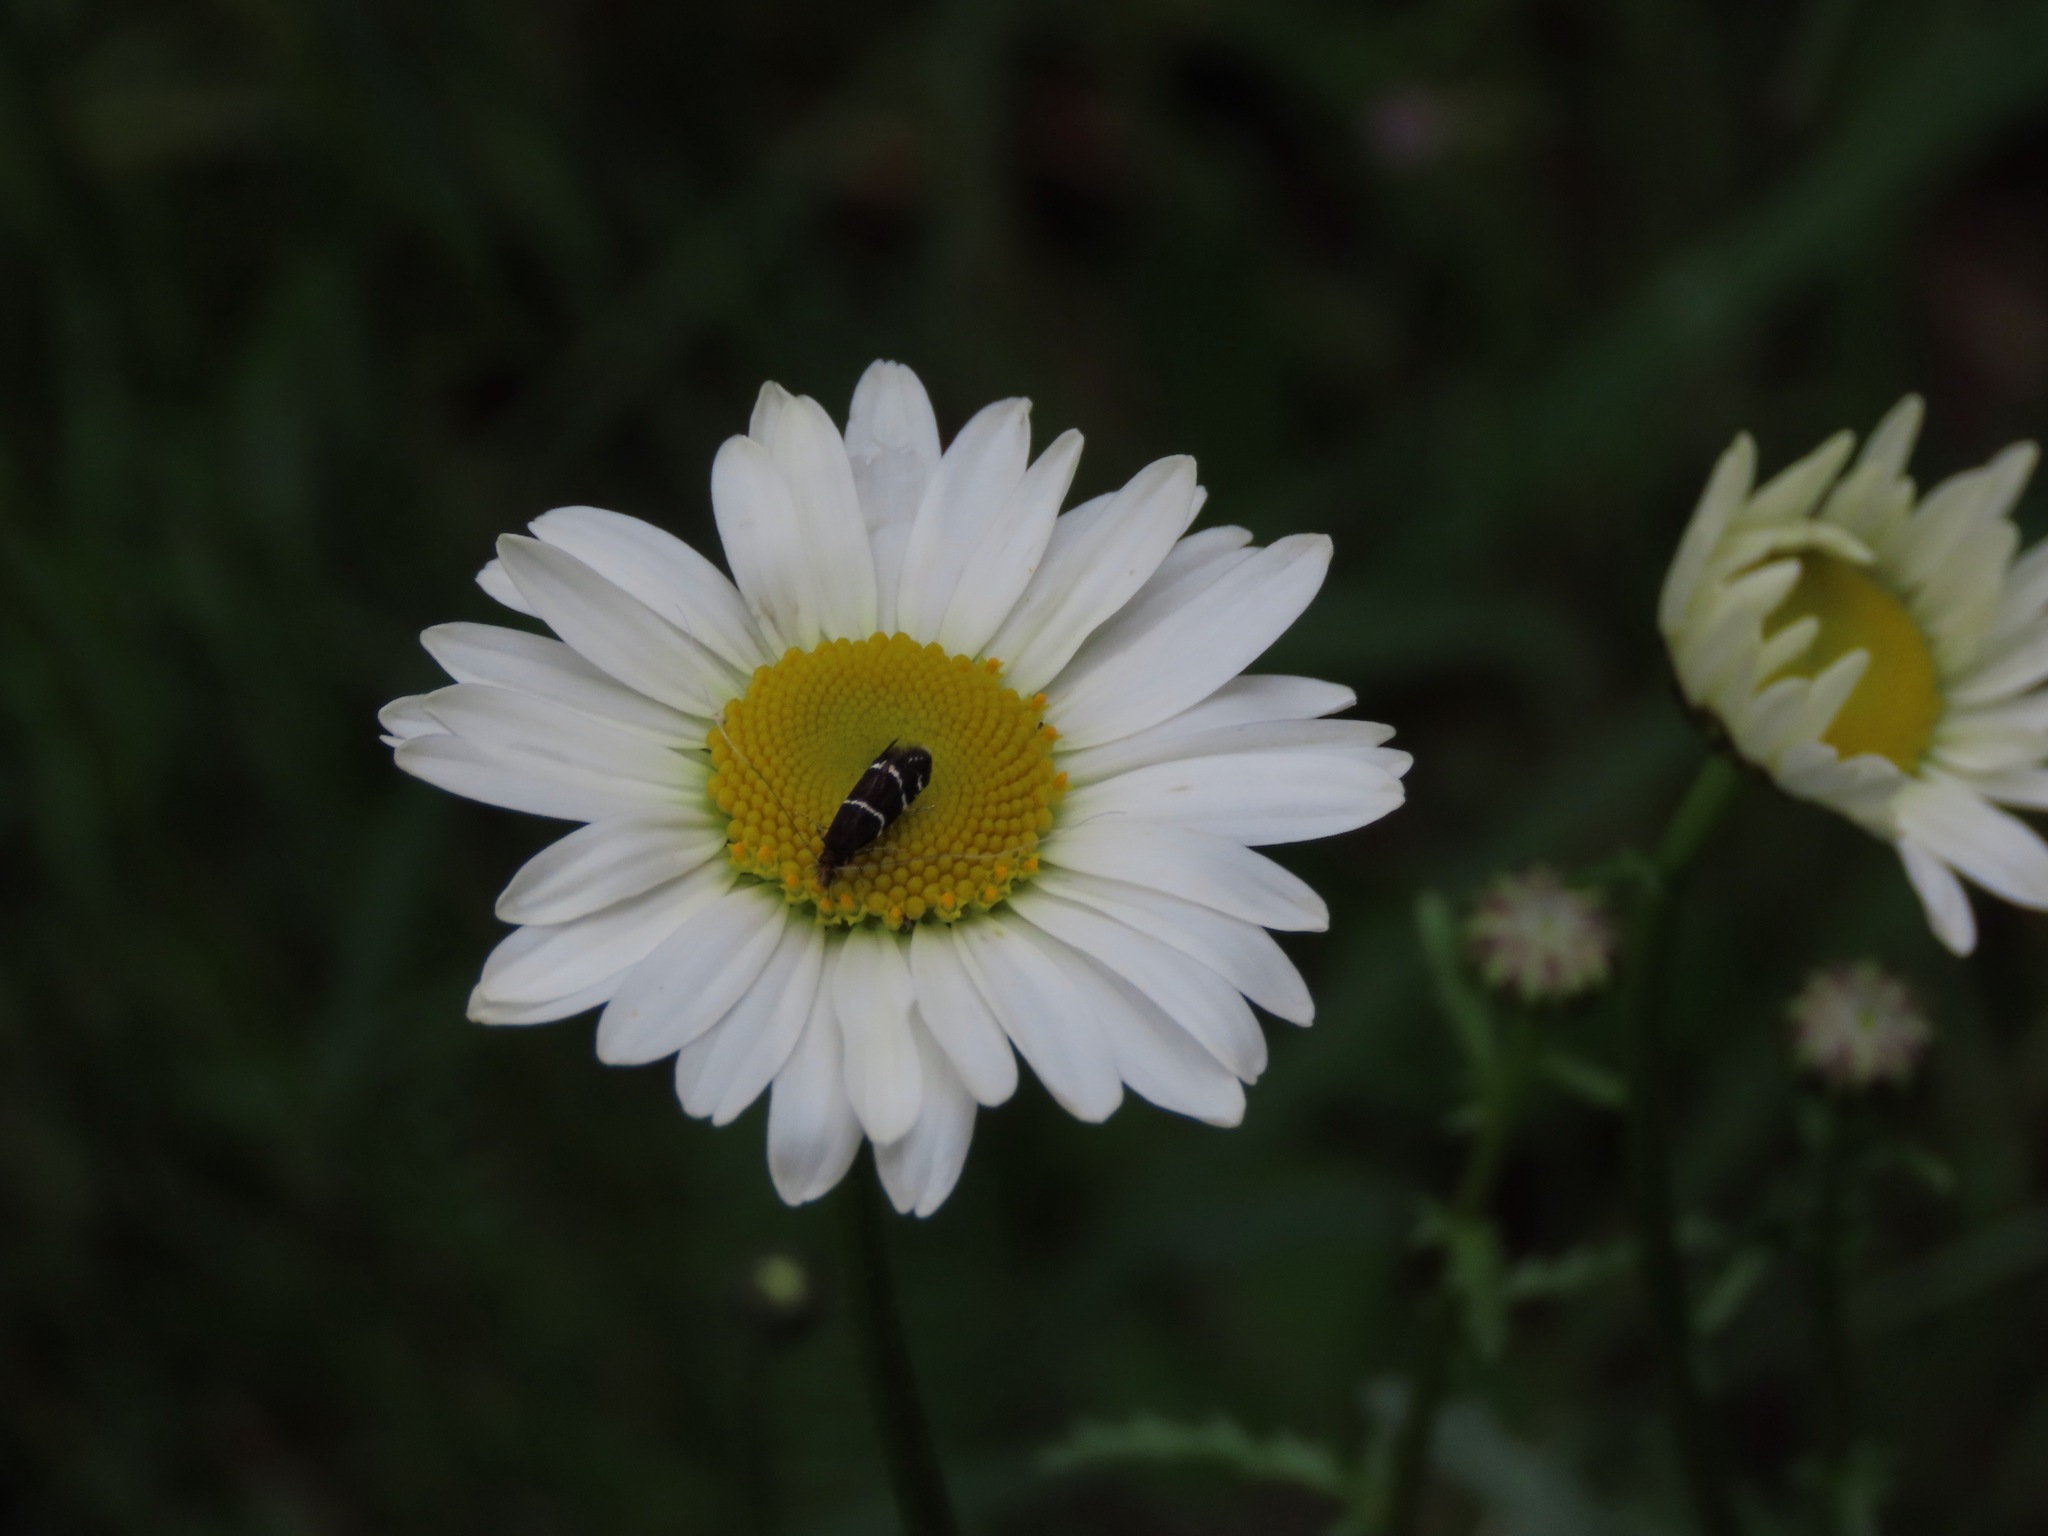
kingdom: Animalia
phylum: Arthropoda
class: Insecta
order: Lepidoptera
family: Adelidae
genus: Adela
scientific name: Adela septentrionella
